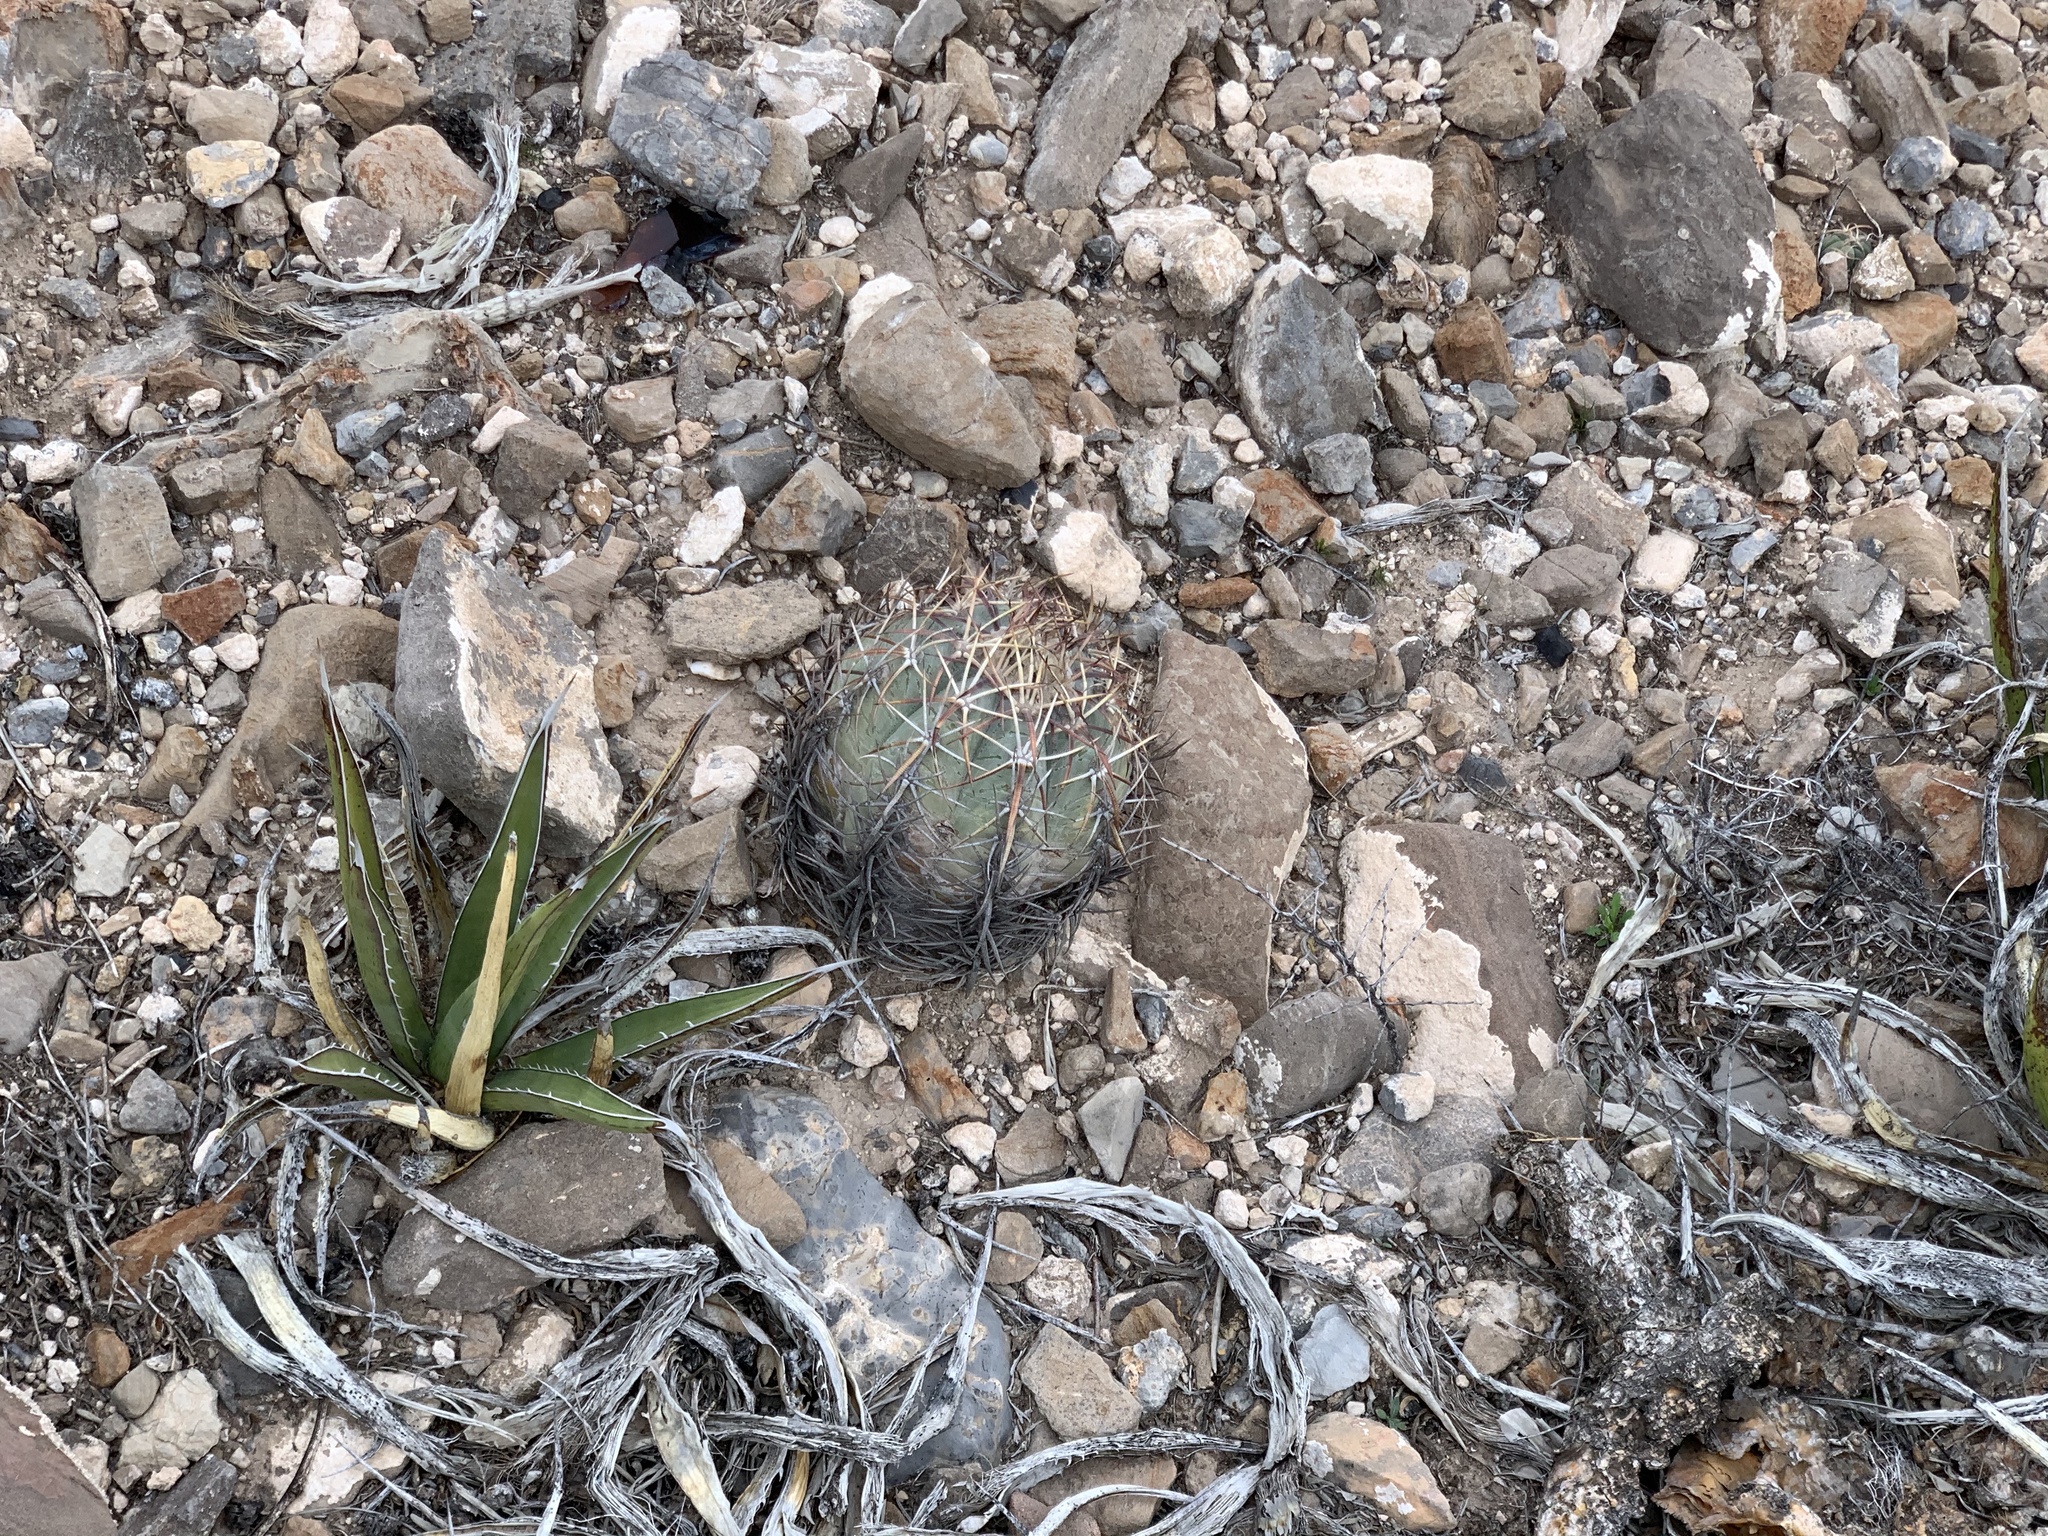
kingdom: Plantae
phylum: Tracheophyta
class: Magnoliopsida
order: Caryophyllales
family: Cactaceae
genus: Echinocactus
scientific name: Echinocactus horizonthalonius
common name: Devilshead
